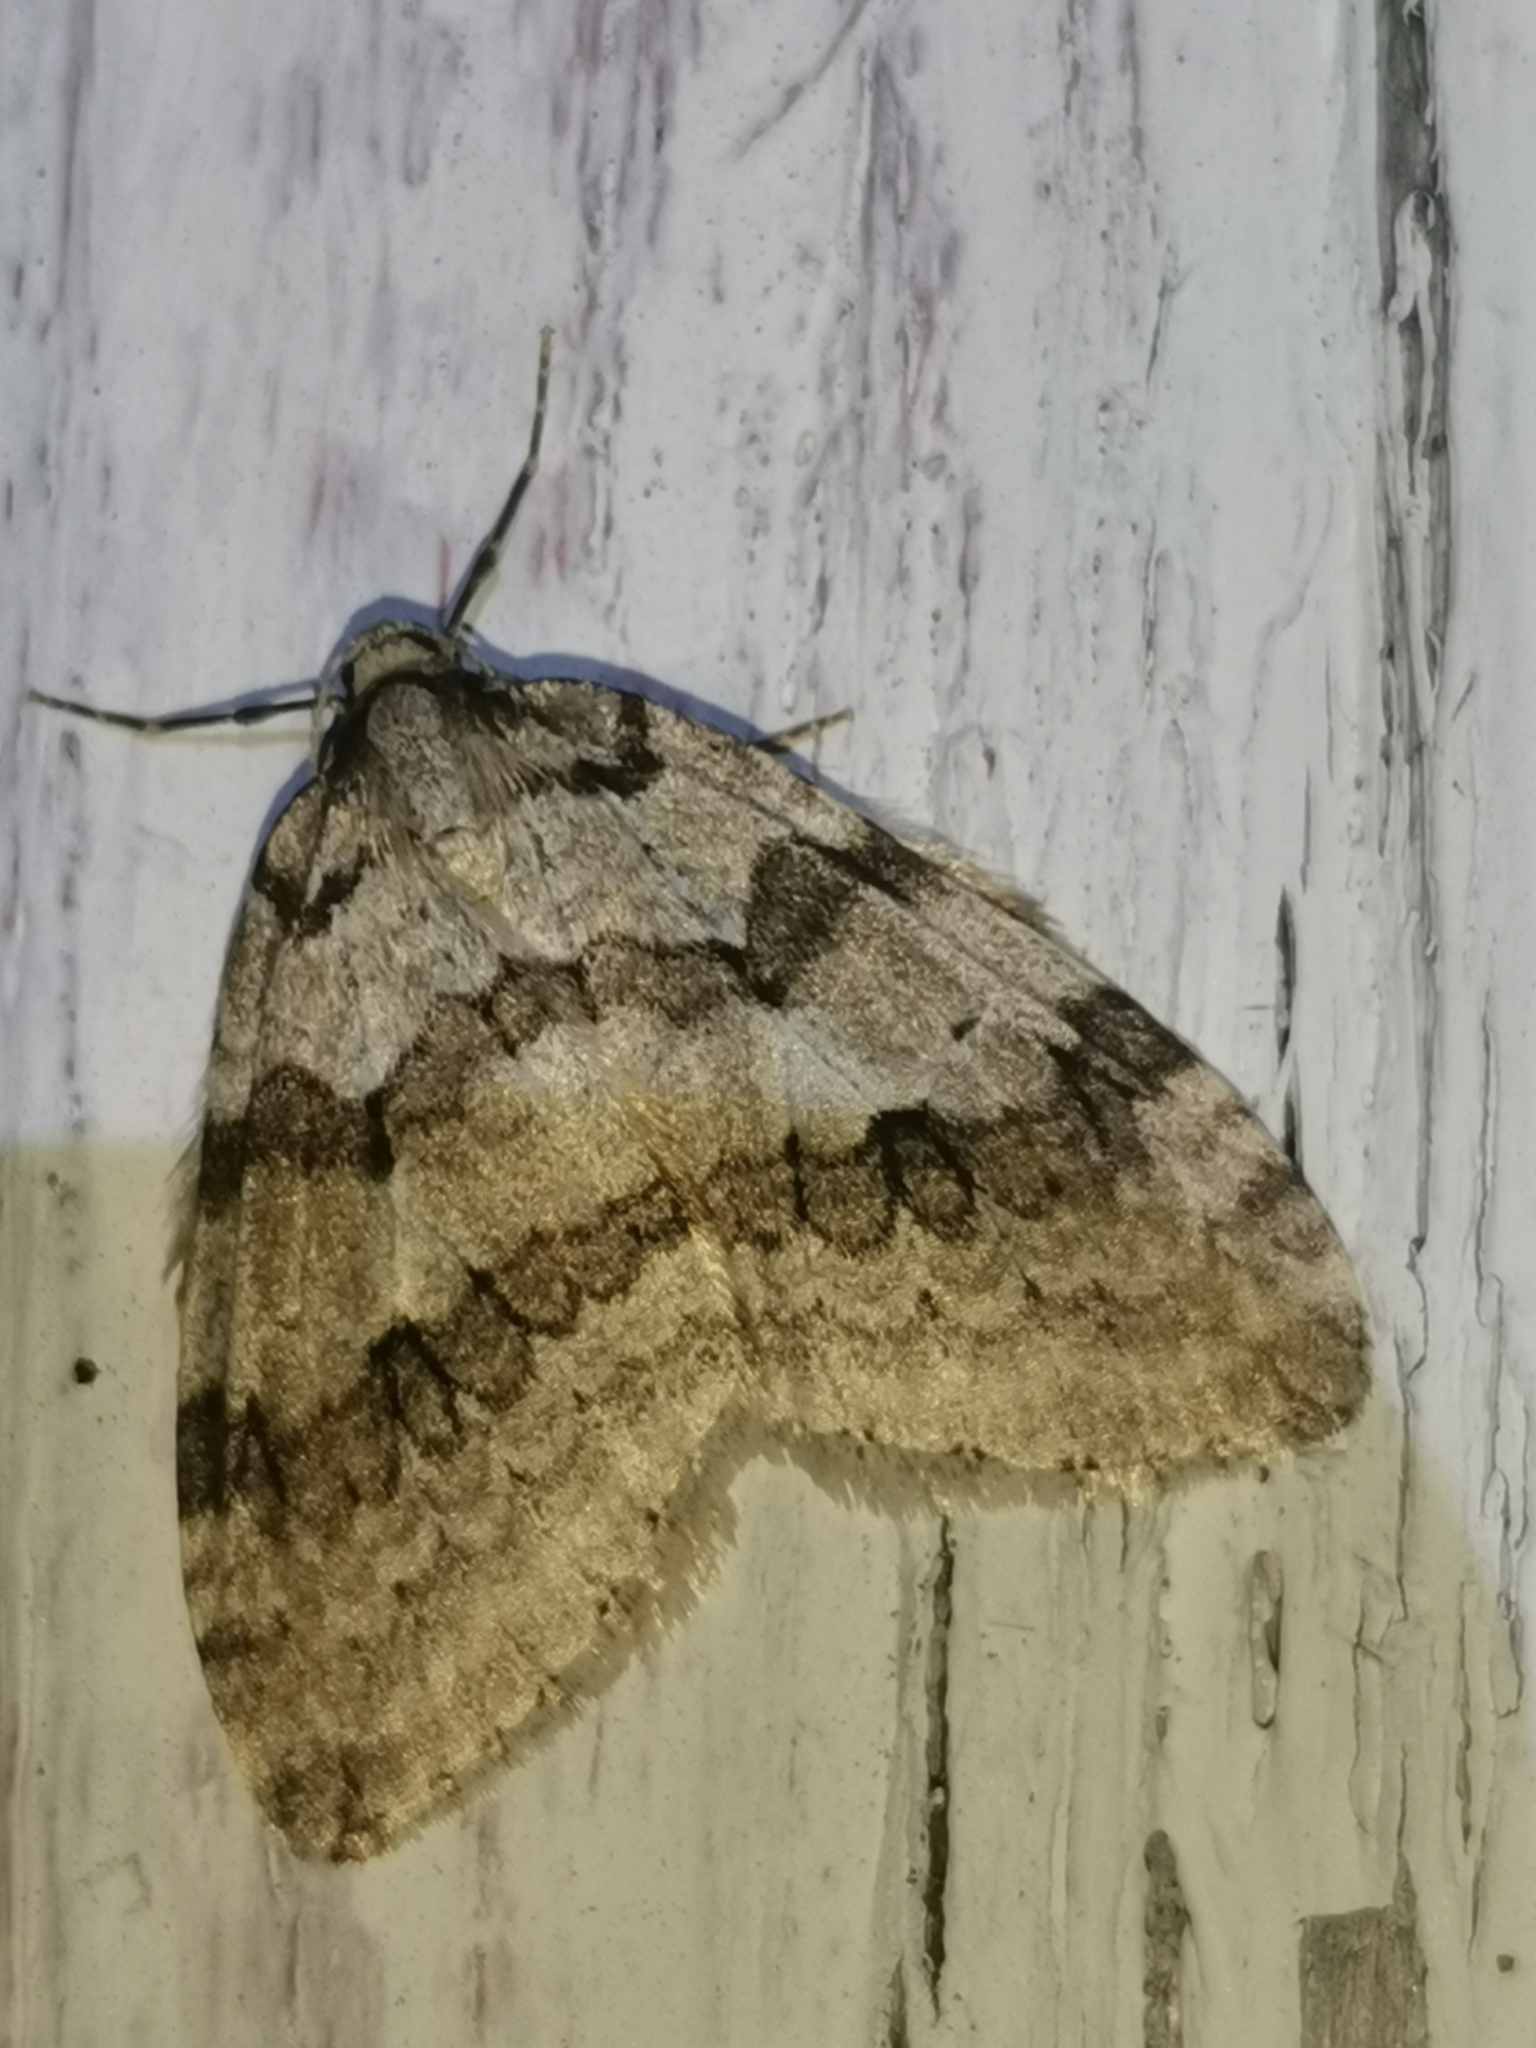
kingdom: Animalia
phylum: Arthropoda
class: Insecta
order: Lepidoptera
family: Geometridae
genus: Epirrita
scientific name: Epirrita autumnata
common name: Autumnal moth
